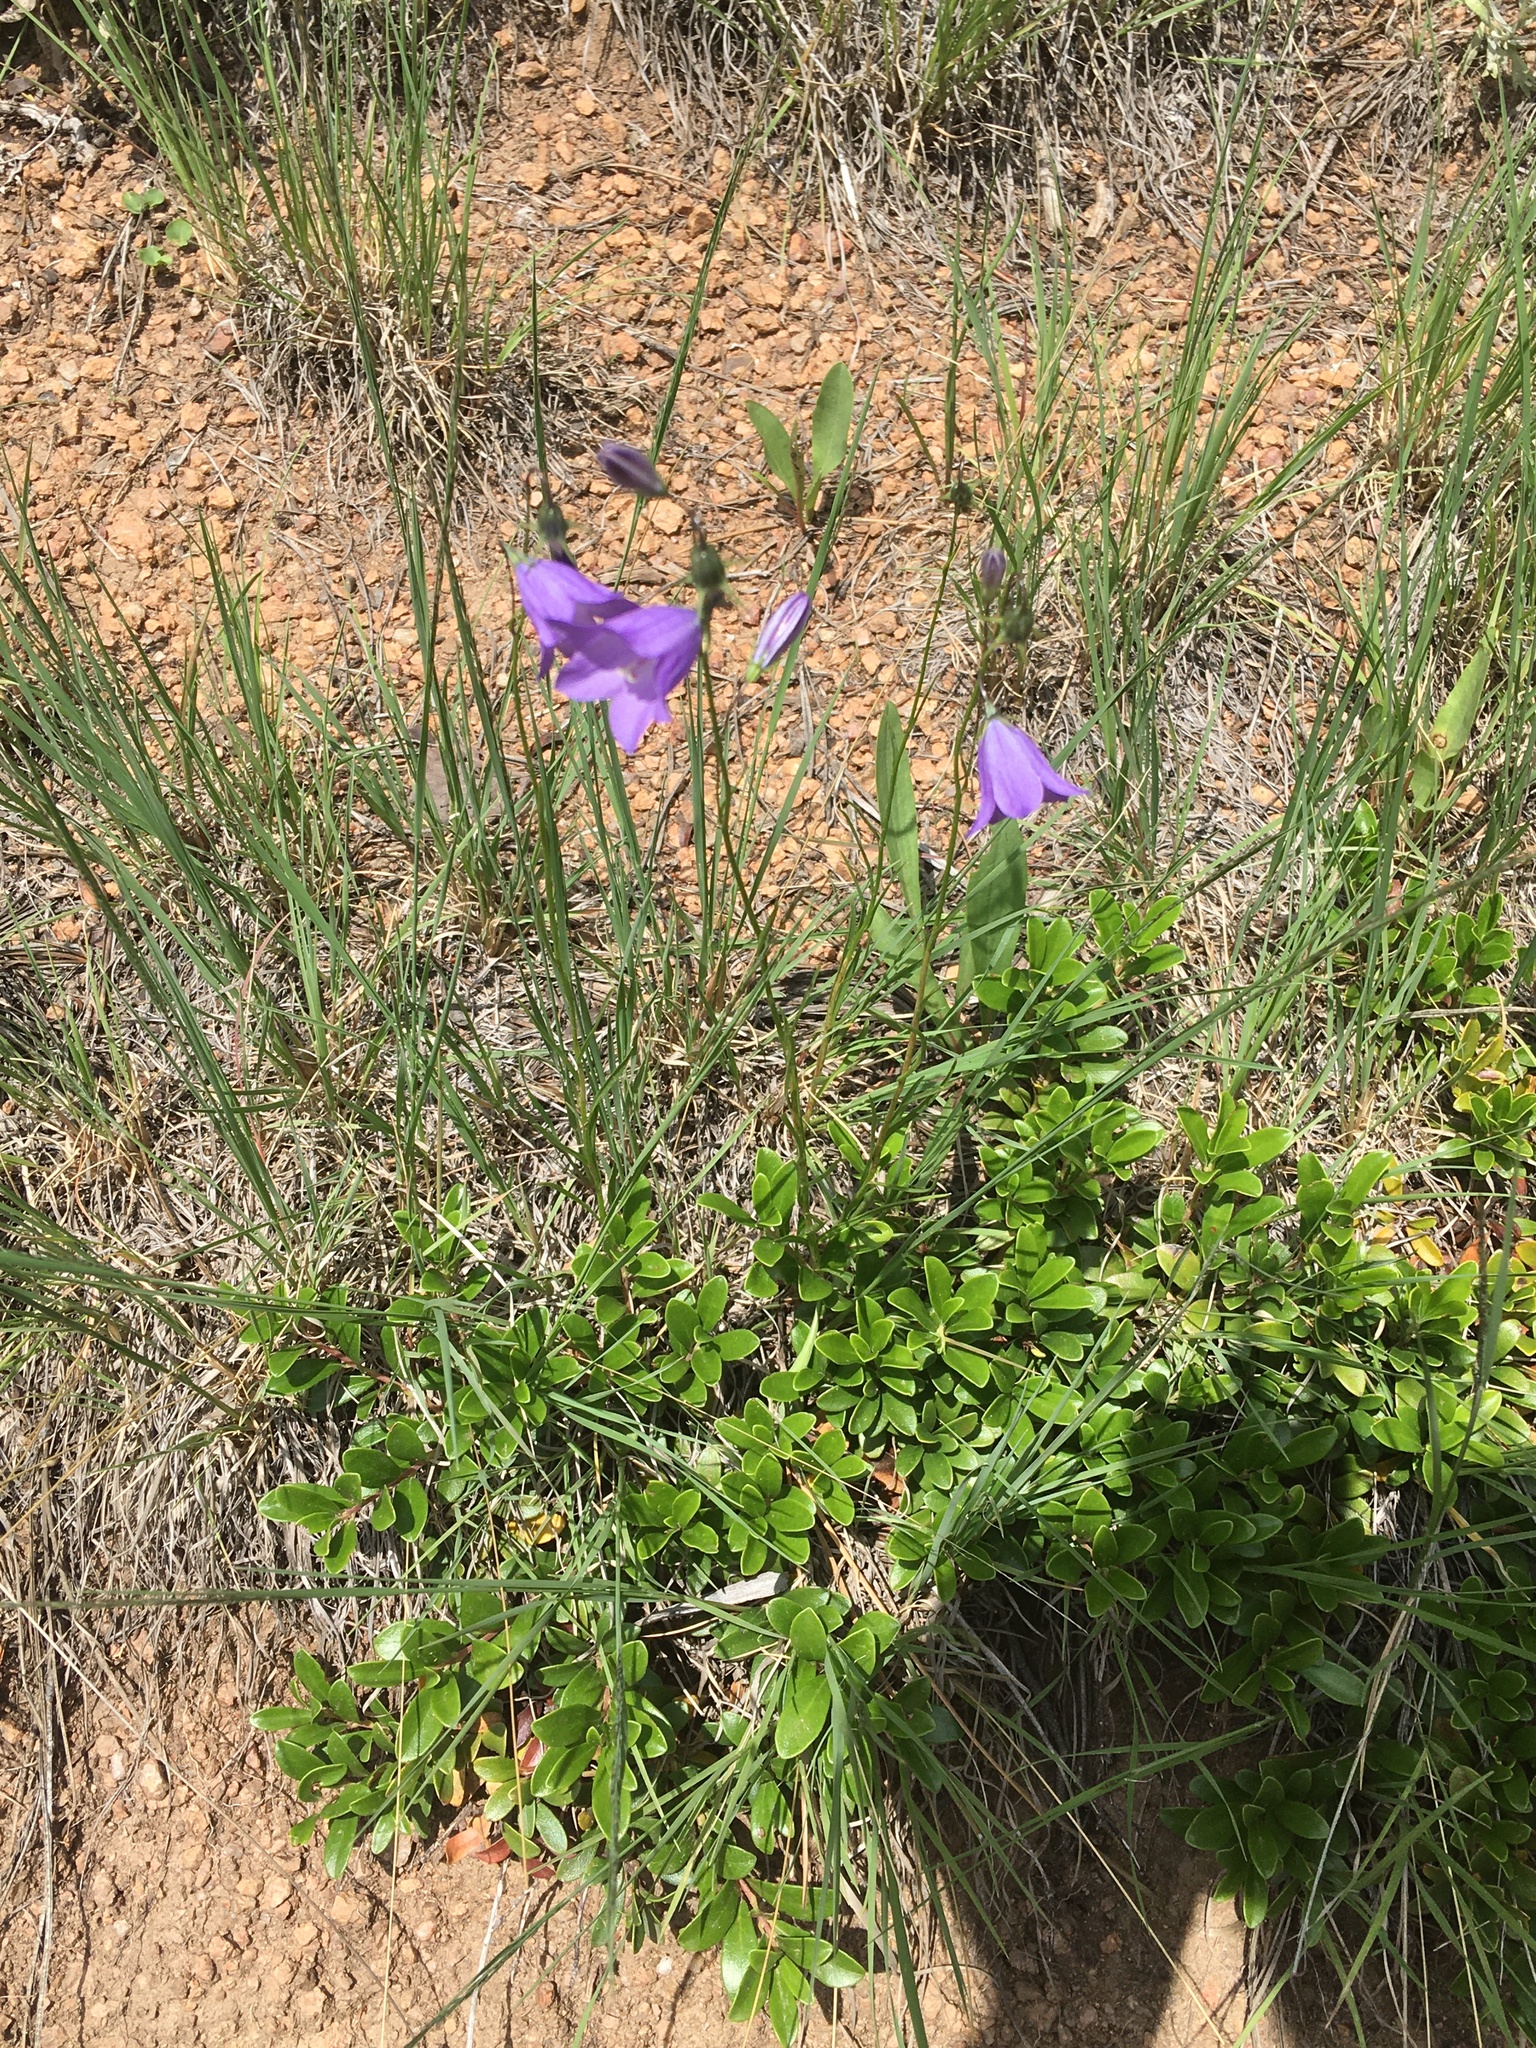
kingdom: Plantae
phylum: Tracheophyta
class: Magnoliopsida
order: Asterales
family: Campanulaceae
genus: Campanula
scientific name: Campanula petiolata
